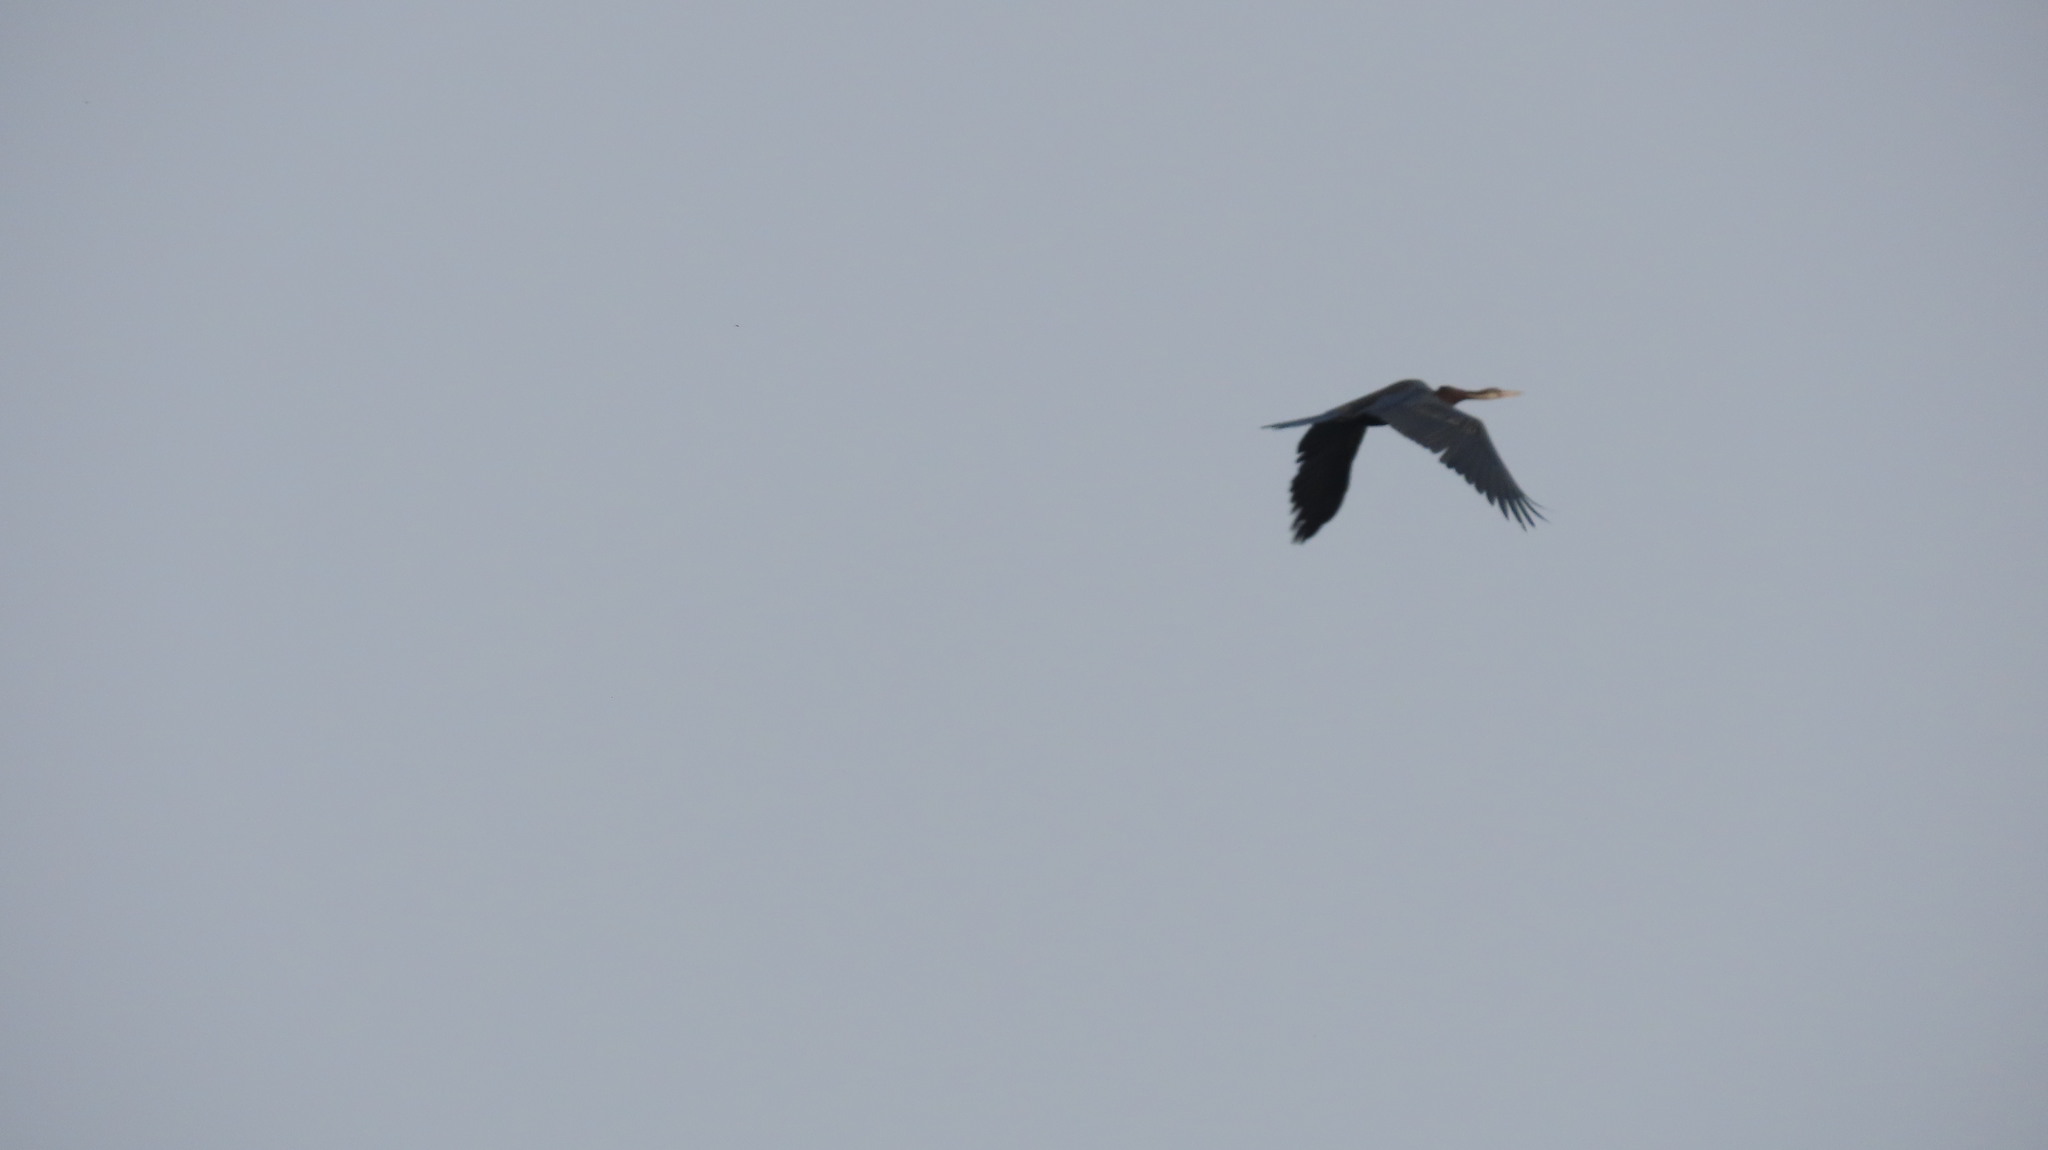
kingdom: Animalia
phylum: Chordata
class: Aves
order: Suliformes
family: Anhingidae
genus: Anhinga
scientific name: Anhinga melanogaster
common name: Oriental darter
